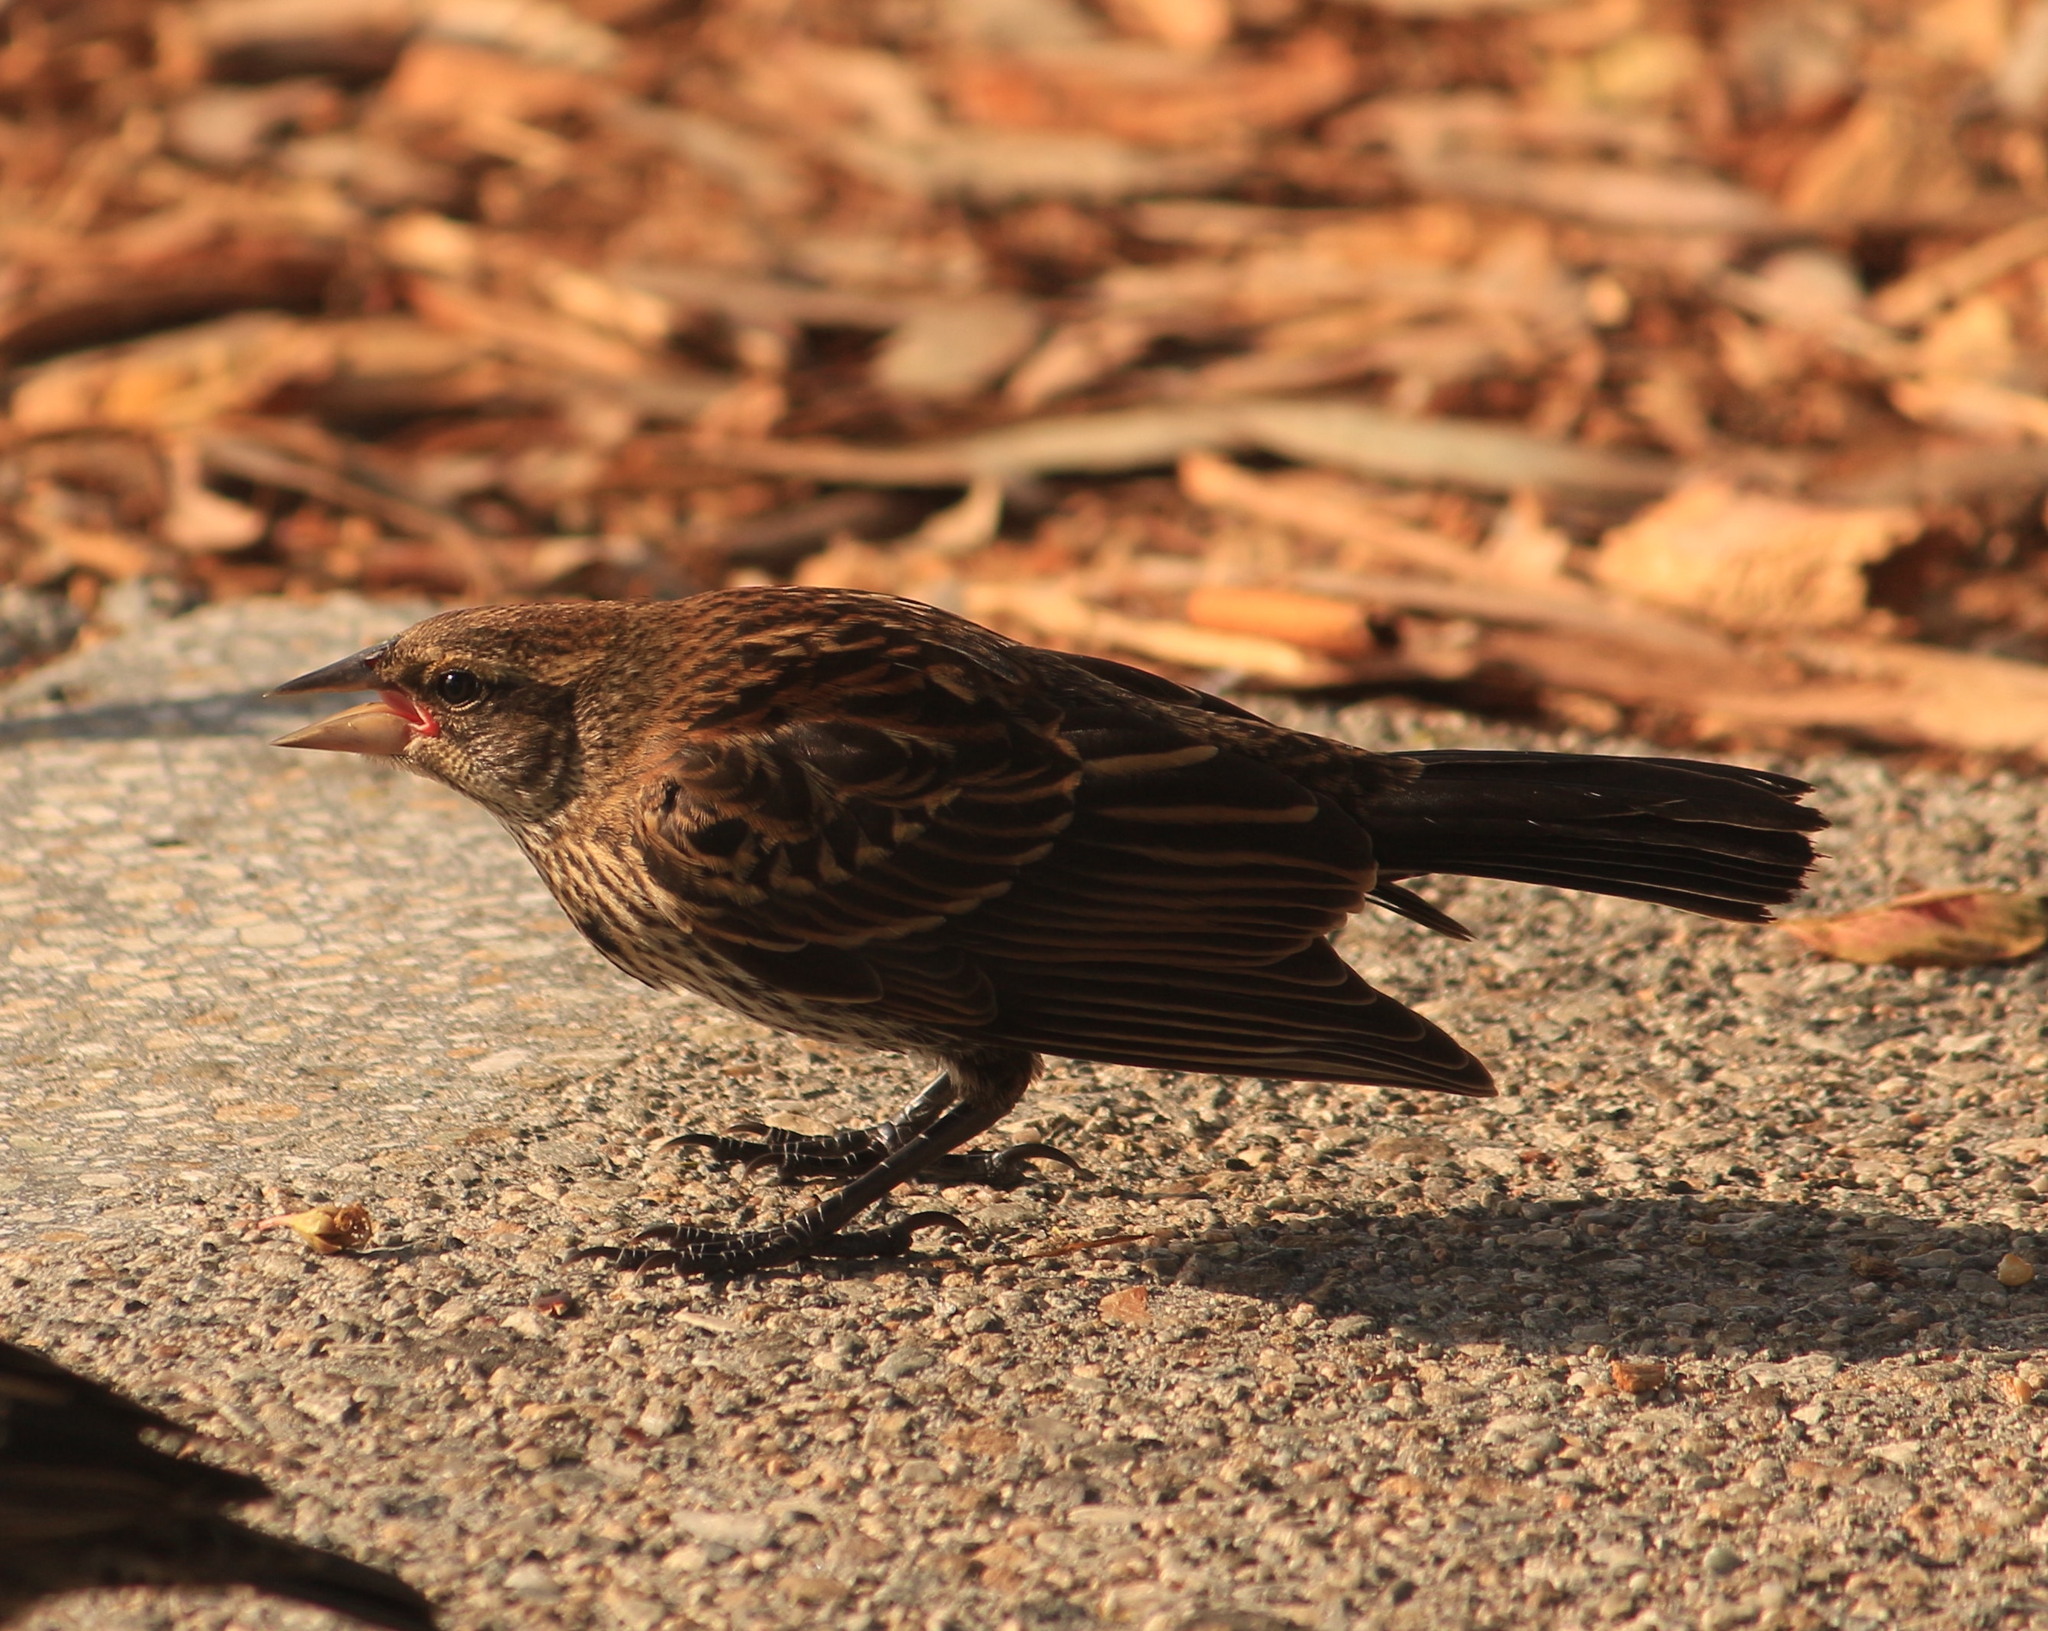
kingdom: Animalia
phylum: Chordata
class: Aves
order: Passeriformes
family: Icteridae
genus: Agelaius
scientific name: Agelaius phoeniceus
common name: Red-winged blackbird
